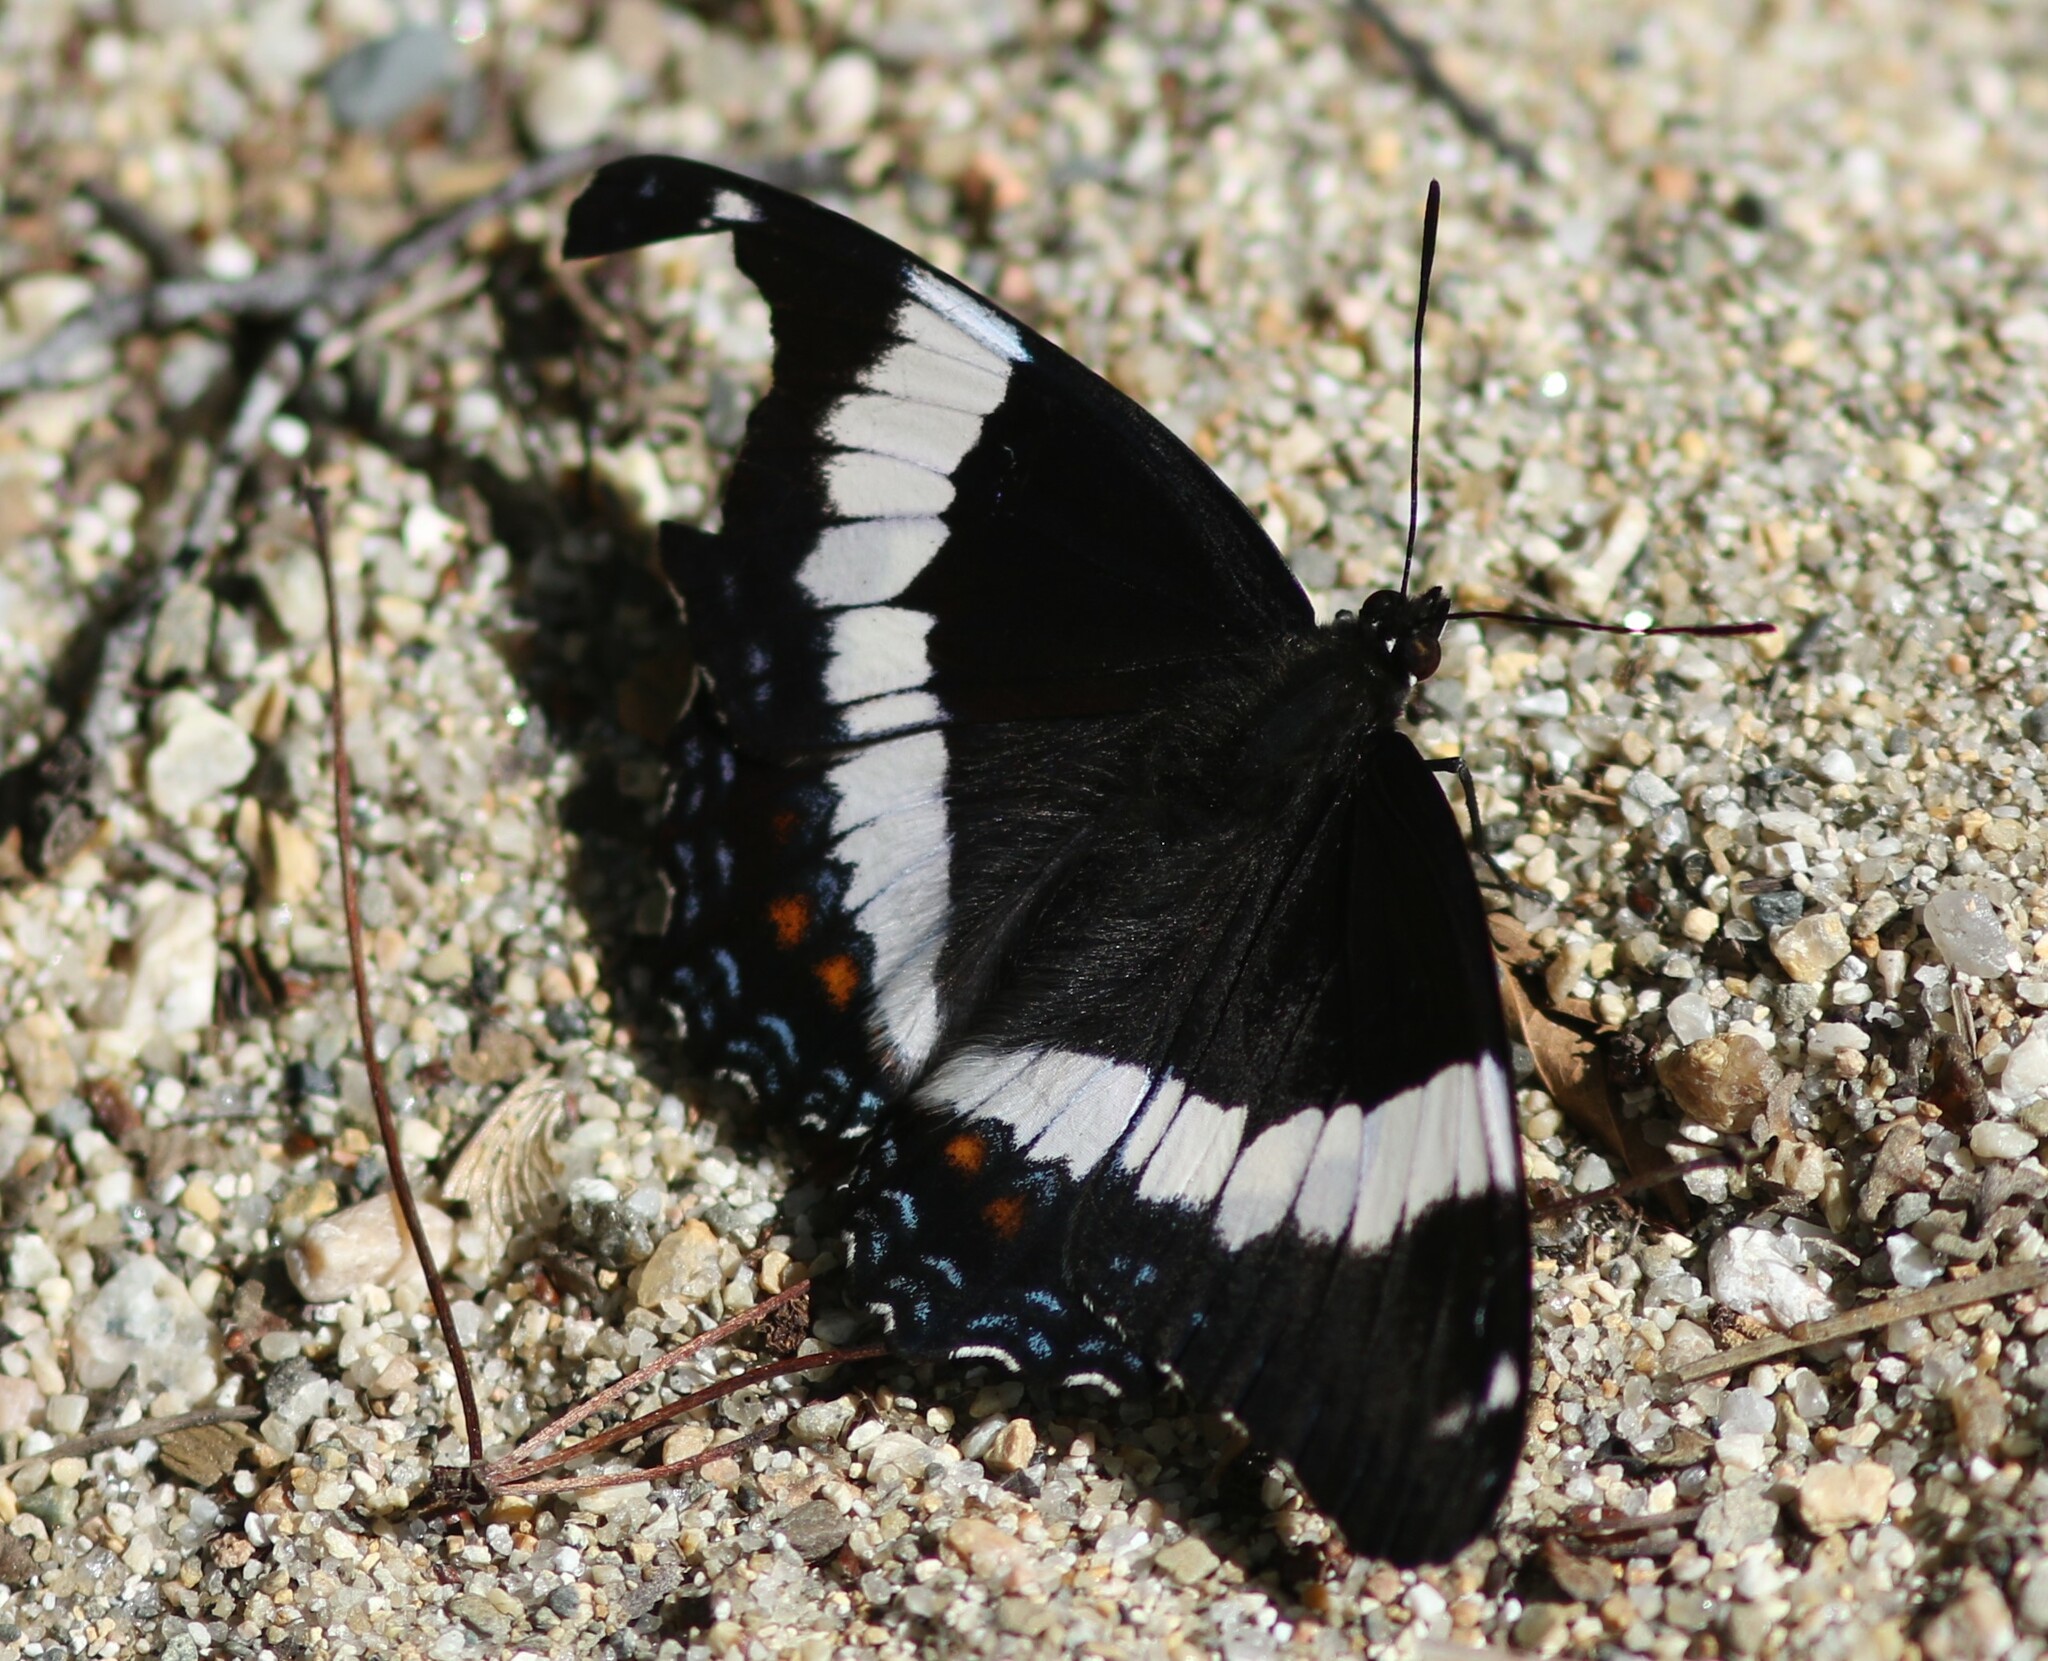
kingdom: Animalia
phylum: Arthropoda
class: Insecta
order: Lepidoptera
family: Nymphalidae
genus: Limenitis
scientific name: Limenitis arthemis
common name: Red-spotted admiral
